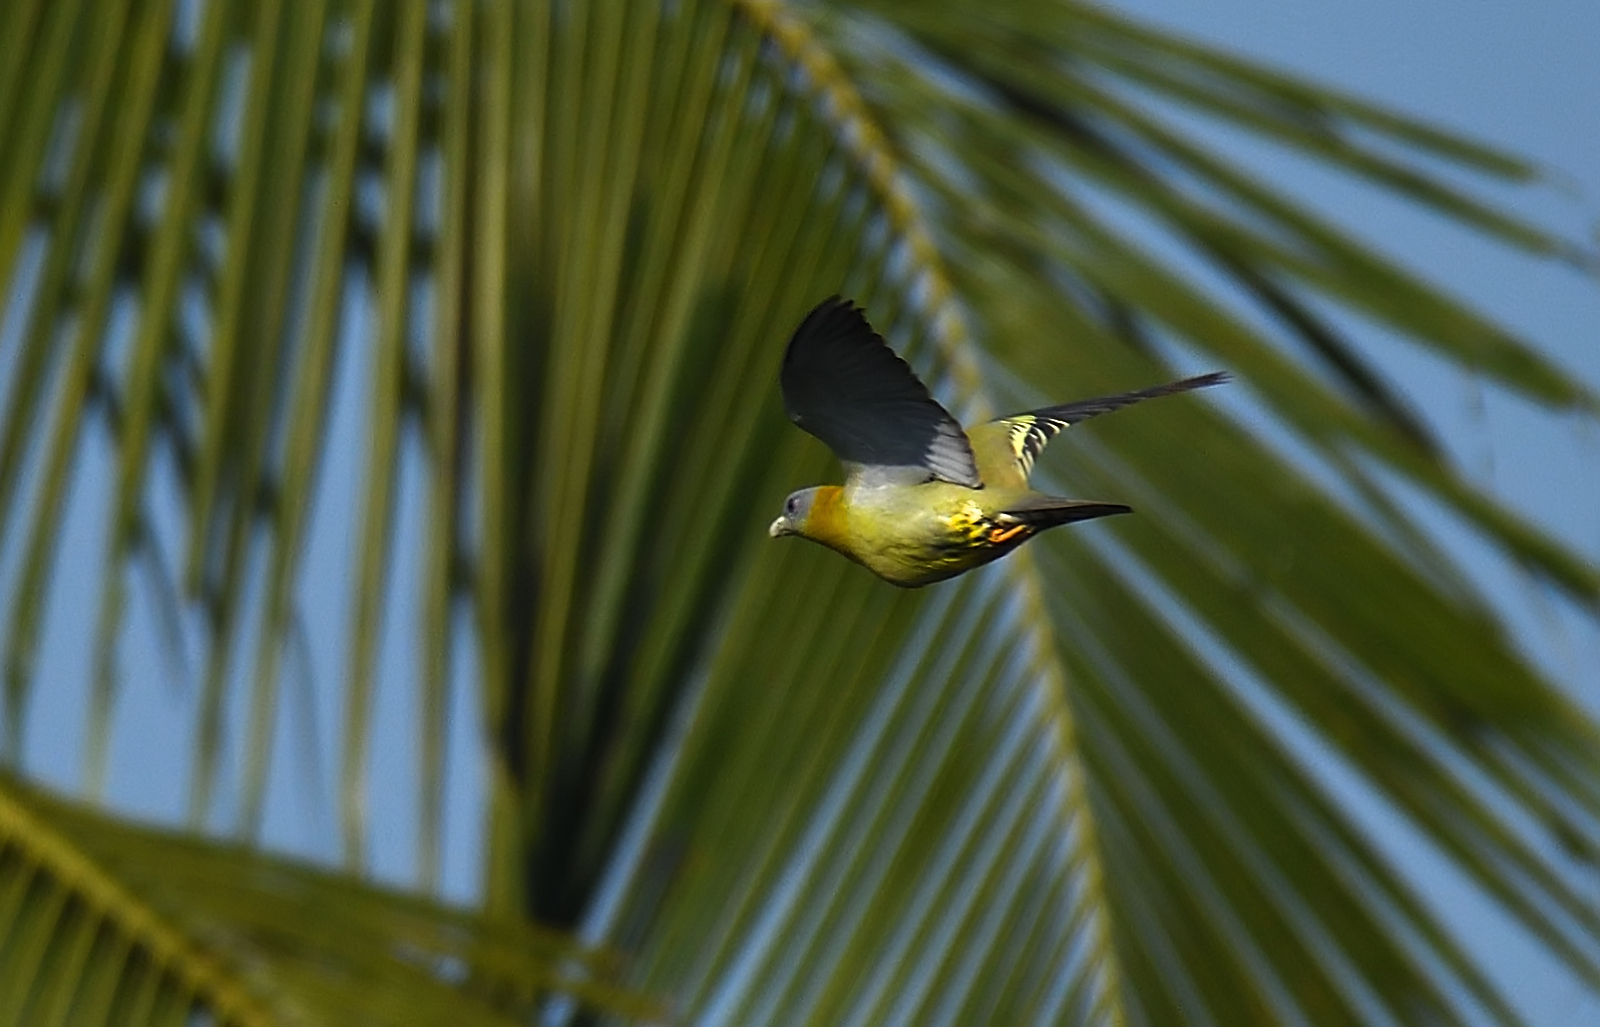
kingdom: Animalia
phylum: Chordata
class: Aves
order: Columbiformes
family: Columbidae
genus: Treron
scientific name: Treron phoenicopterus
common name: Yellow-footed green pigeon
